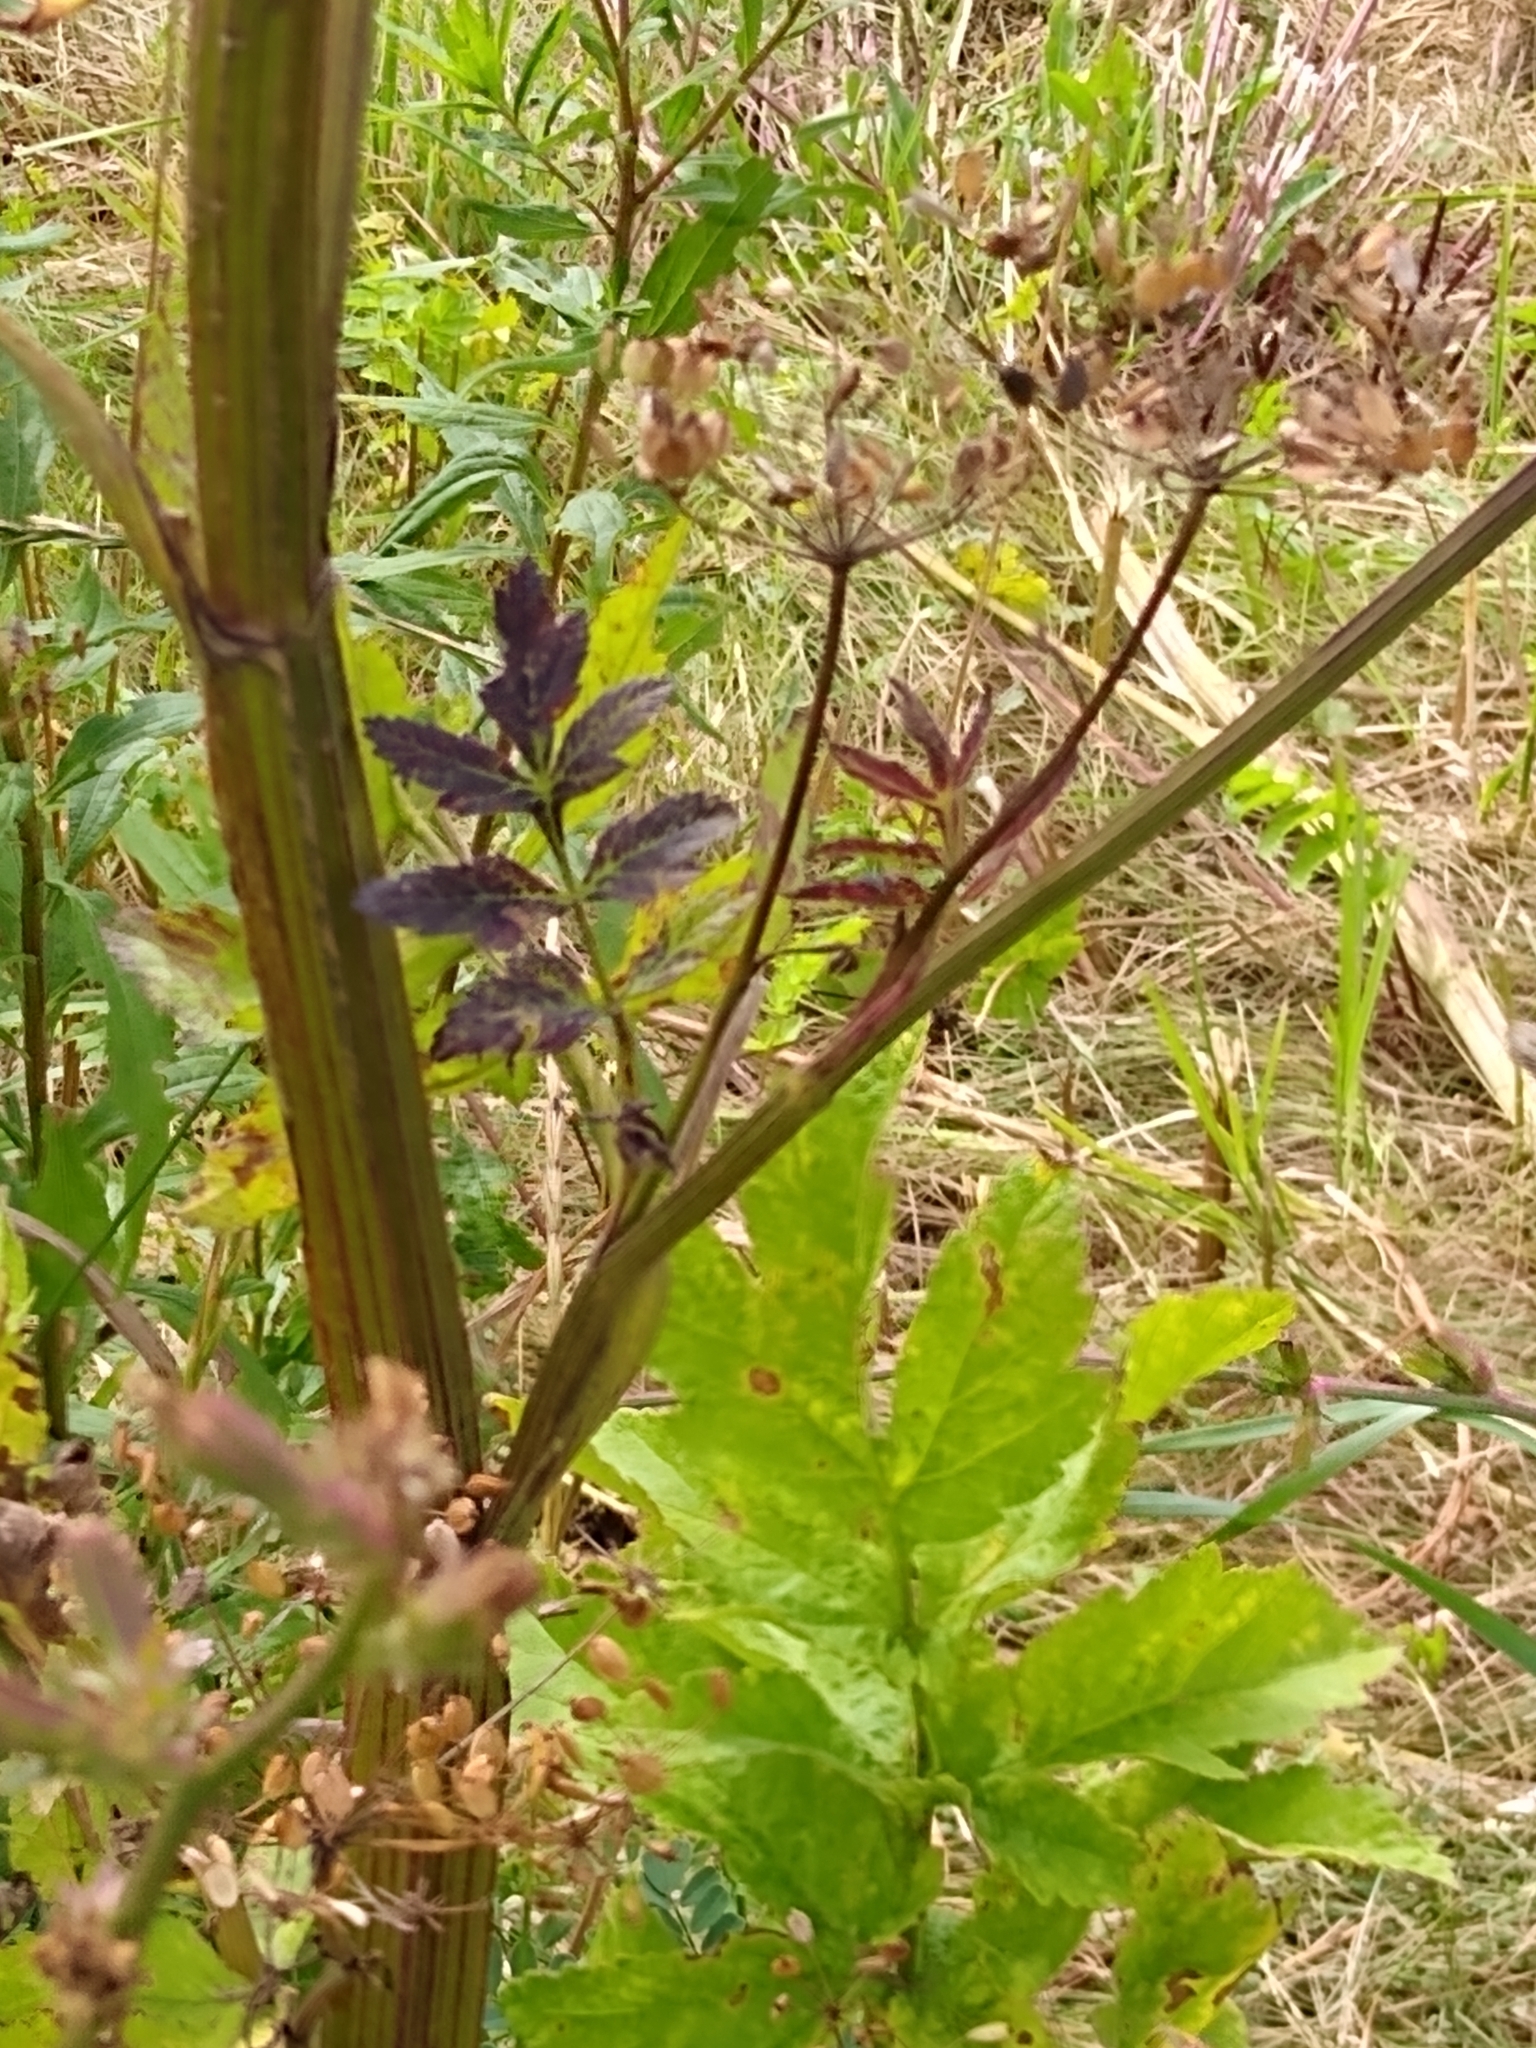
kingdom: Plantae
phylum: Tracheophyta
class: Magnoliopsida
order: Apiales
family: Apiaceae
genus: Pastinaca
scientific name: Pastinaca sativa
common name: Wild parsnip
